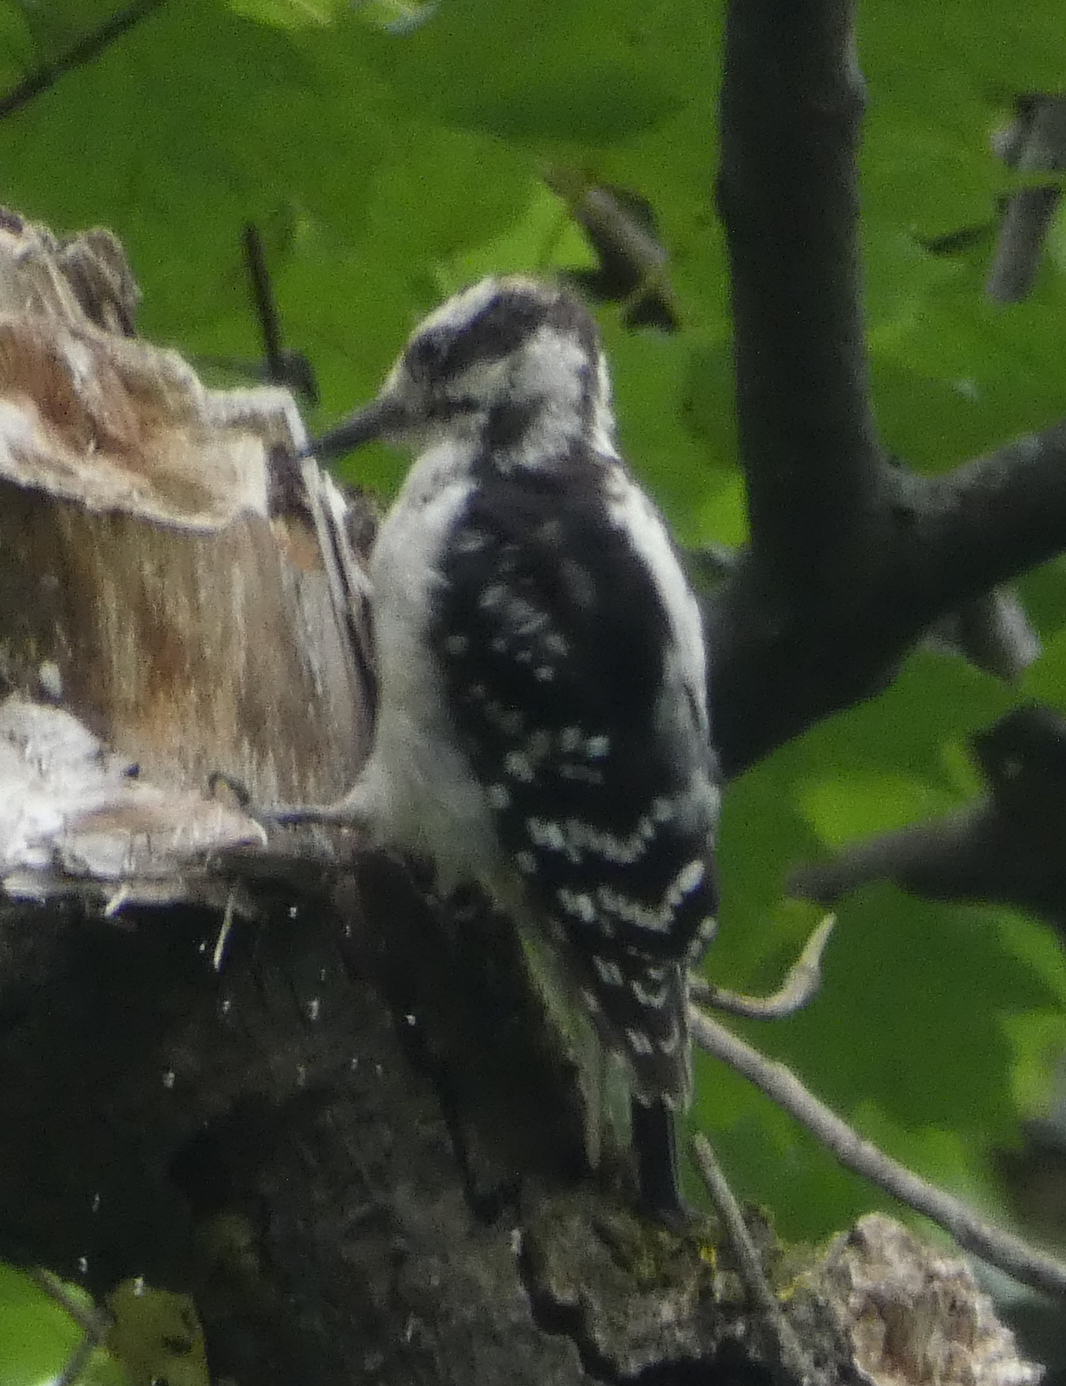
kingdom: Animalia
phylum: Chordata
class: Aves
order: Piciformes
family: Picidae
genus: Leuconotopicus
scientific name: Leuconotopicus villosus
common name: Hairy woodpecker
